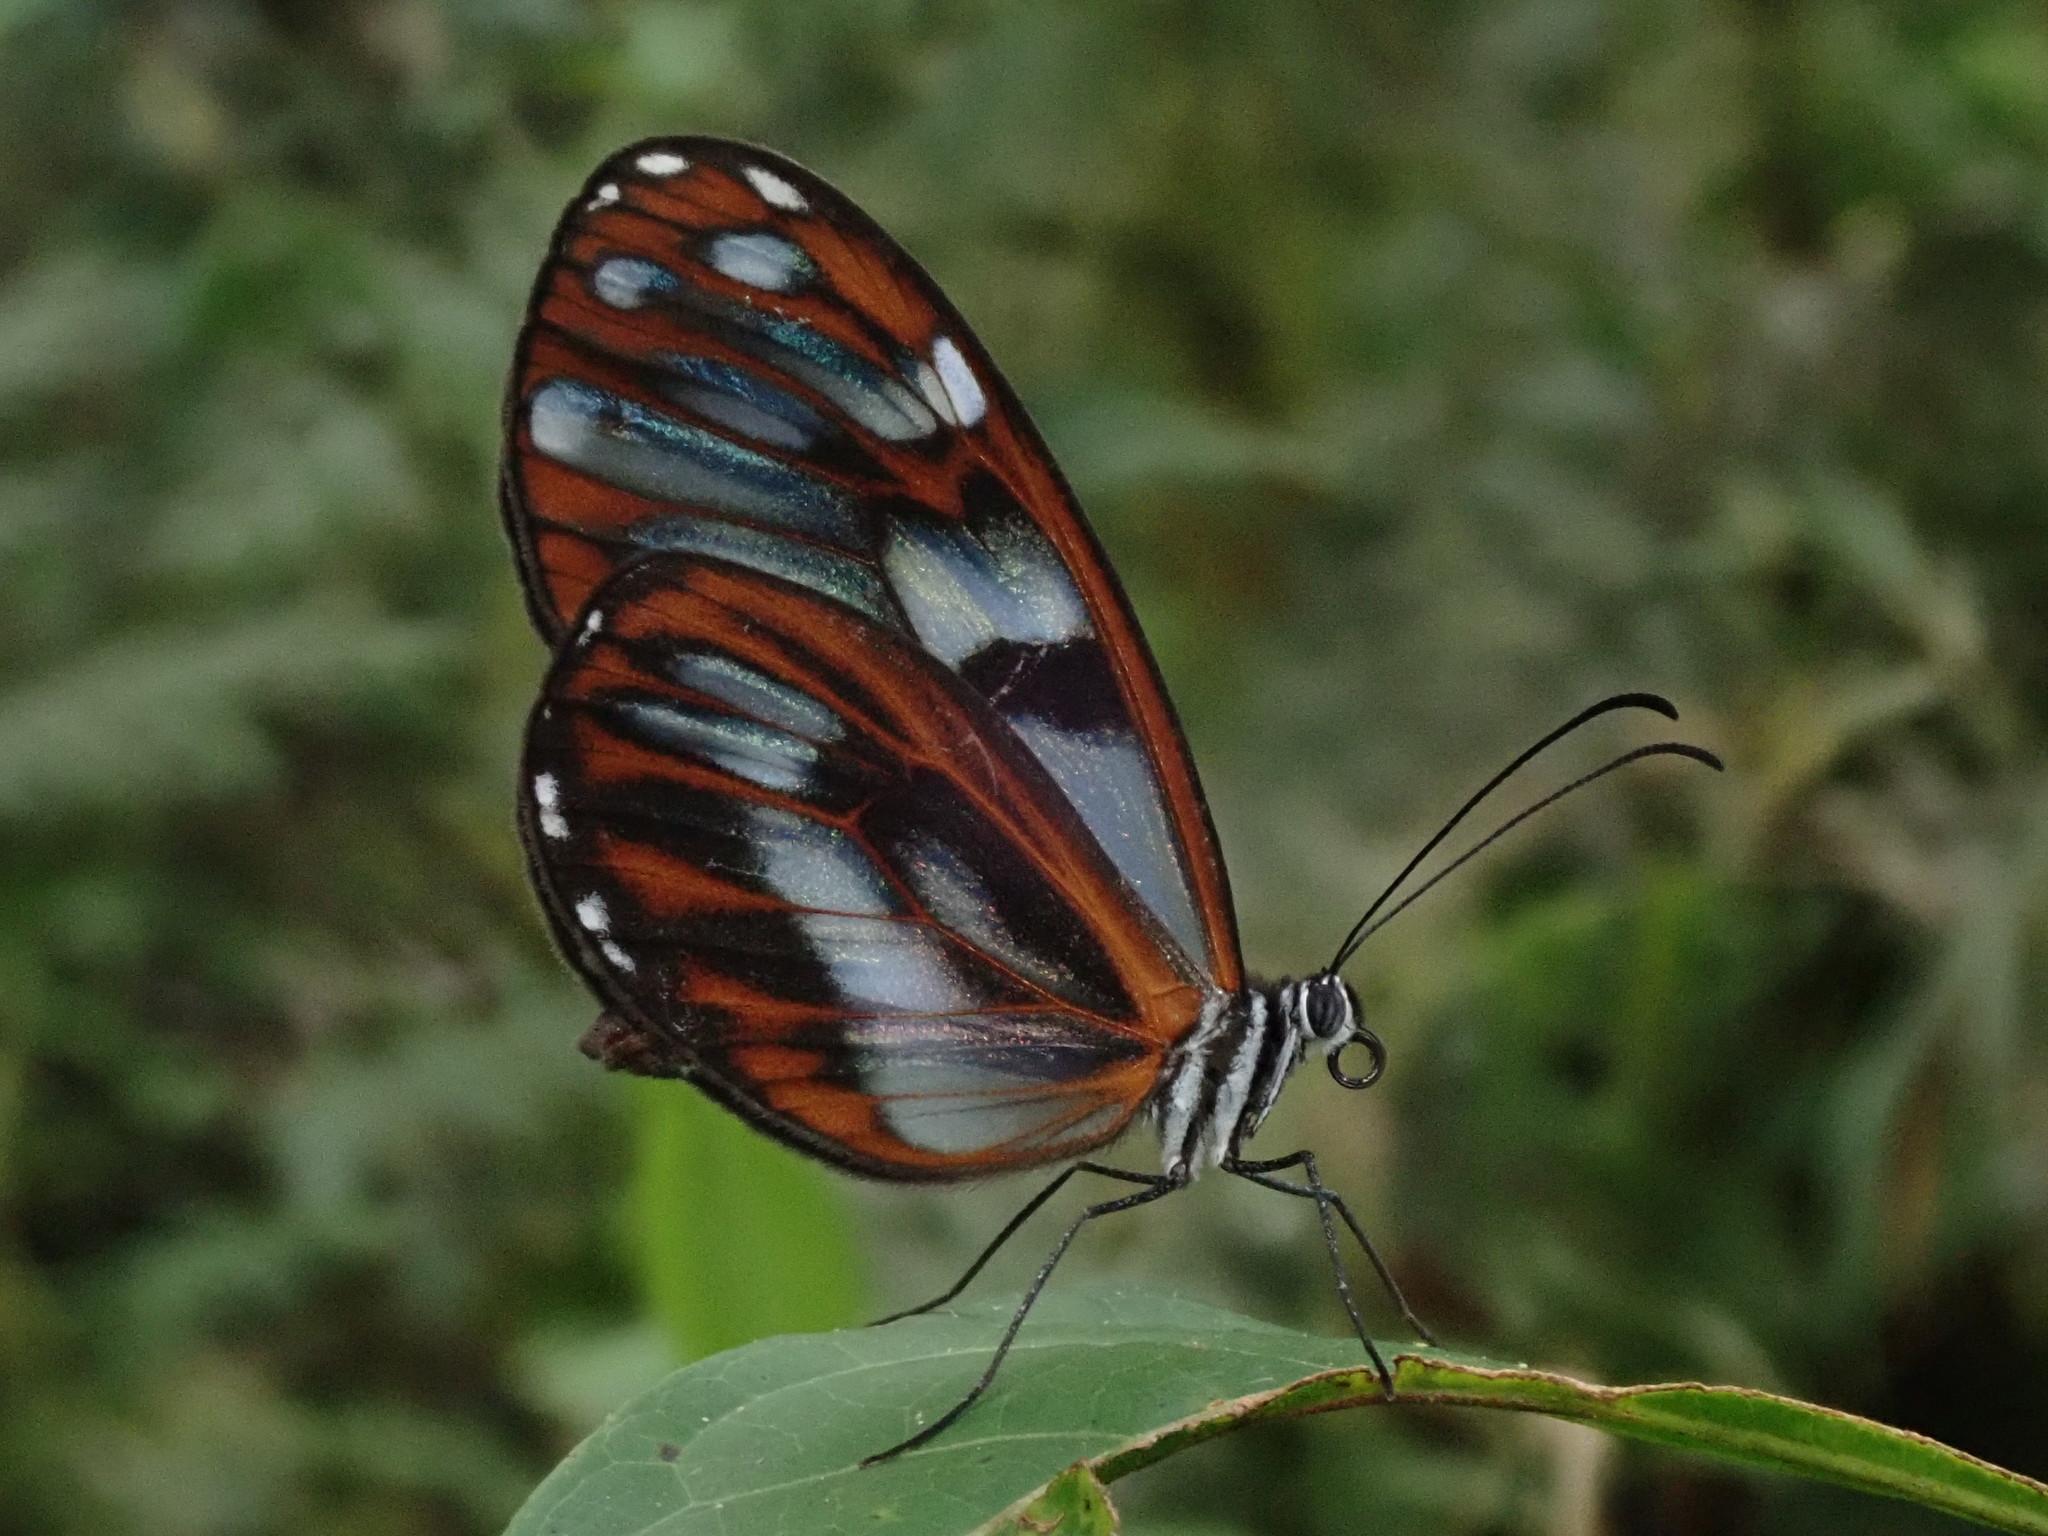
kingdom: Animalia
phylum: Arthropoda
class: Insecta
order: Lepidoptera
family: Nymphalidae
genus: Oleria
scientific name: Oleria baizana
